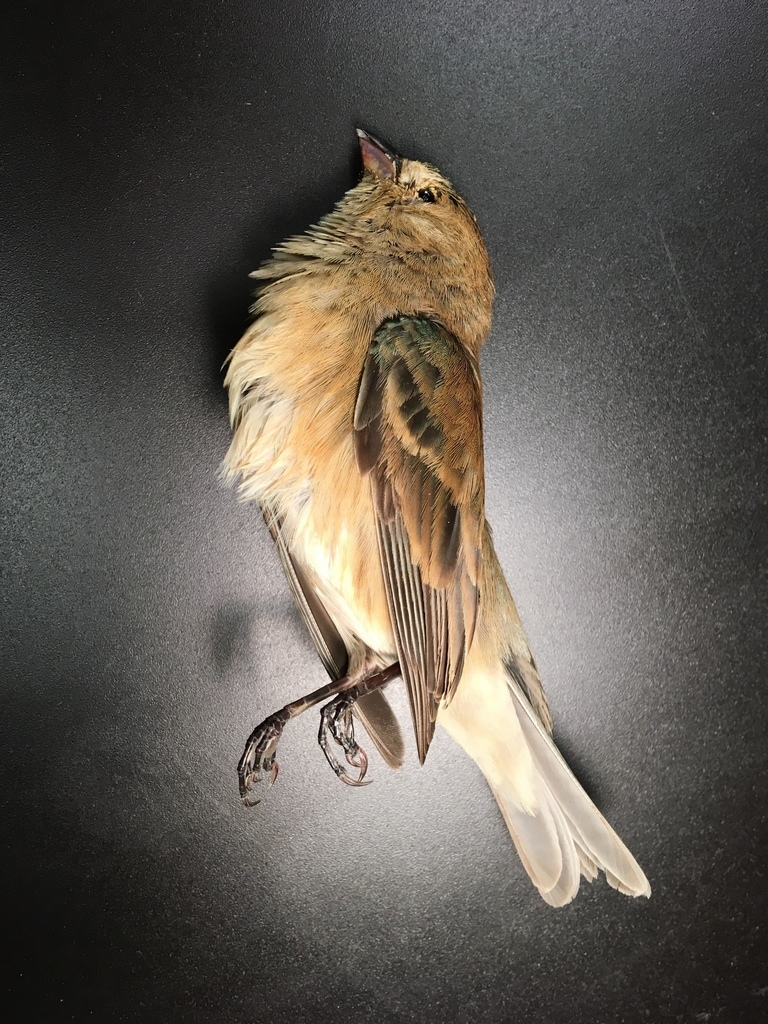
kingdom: Animalia
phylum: Chordata
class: Aves
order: Passeriformes
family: Cardinalidae
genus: Passerina
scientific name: Passerina cyanea
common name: Indigo bunting
